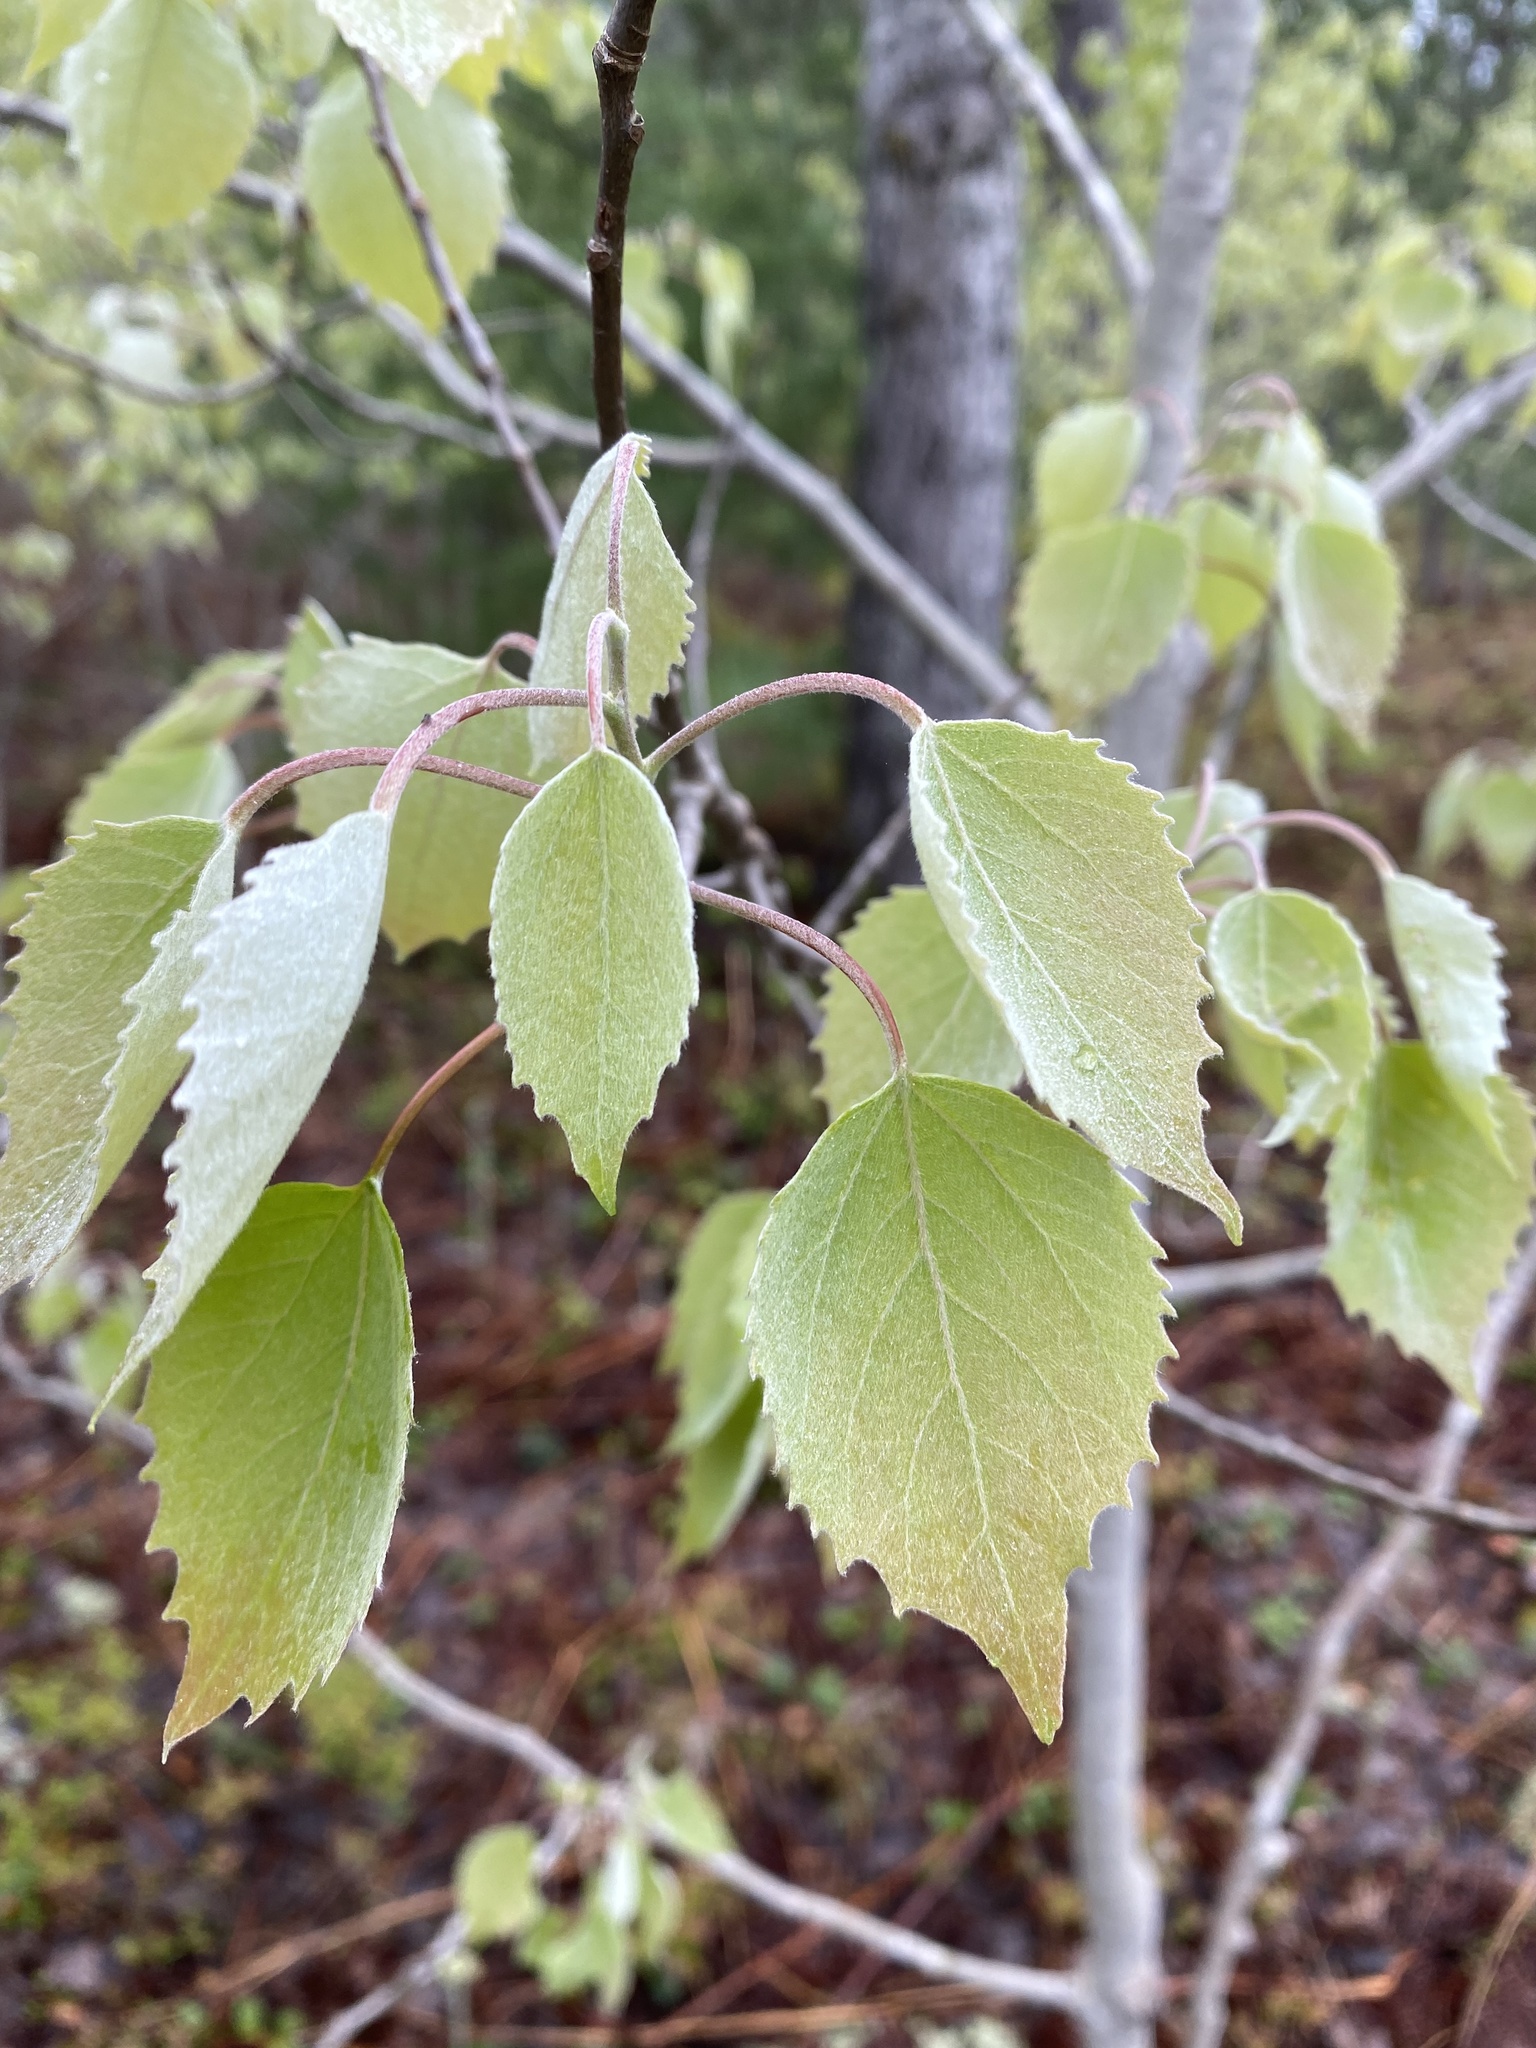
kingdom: Plantae
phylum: Tracheophyta
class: Magnoliopsida
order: Malpighiales
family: Salicaceae
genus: Populus
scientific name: Populus grandidentata
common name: Bigtooth aspen
